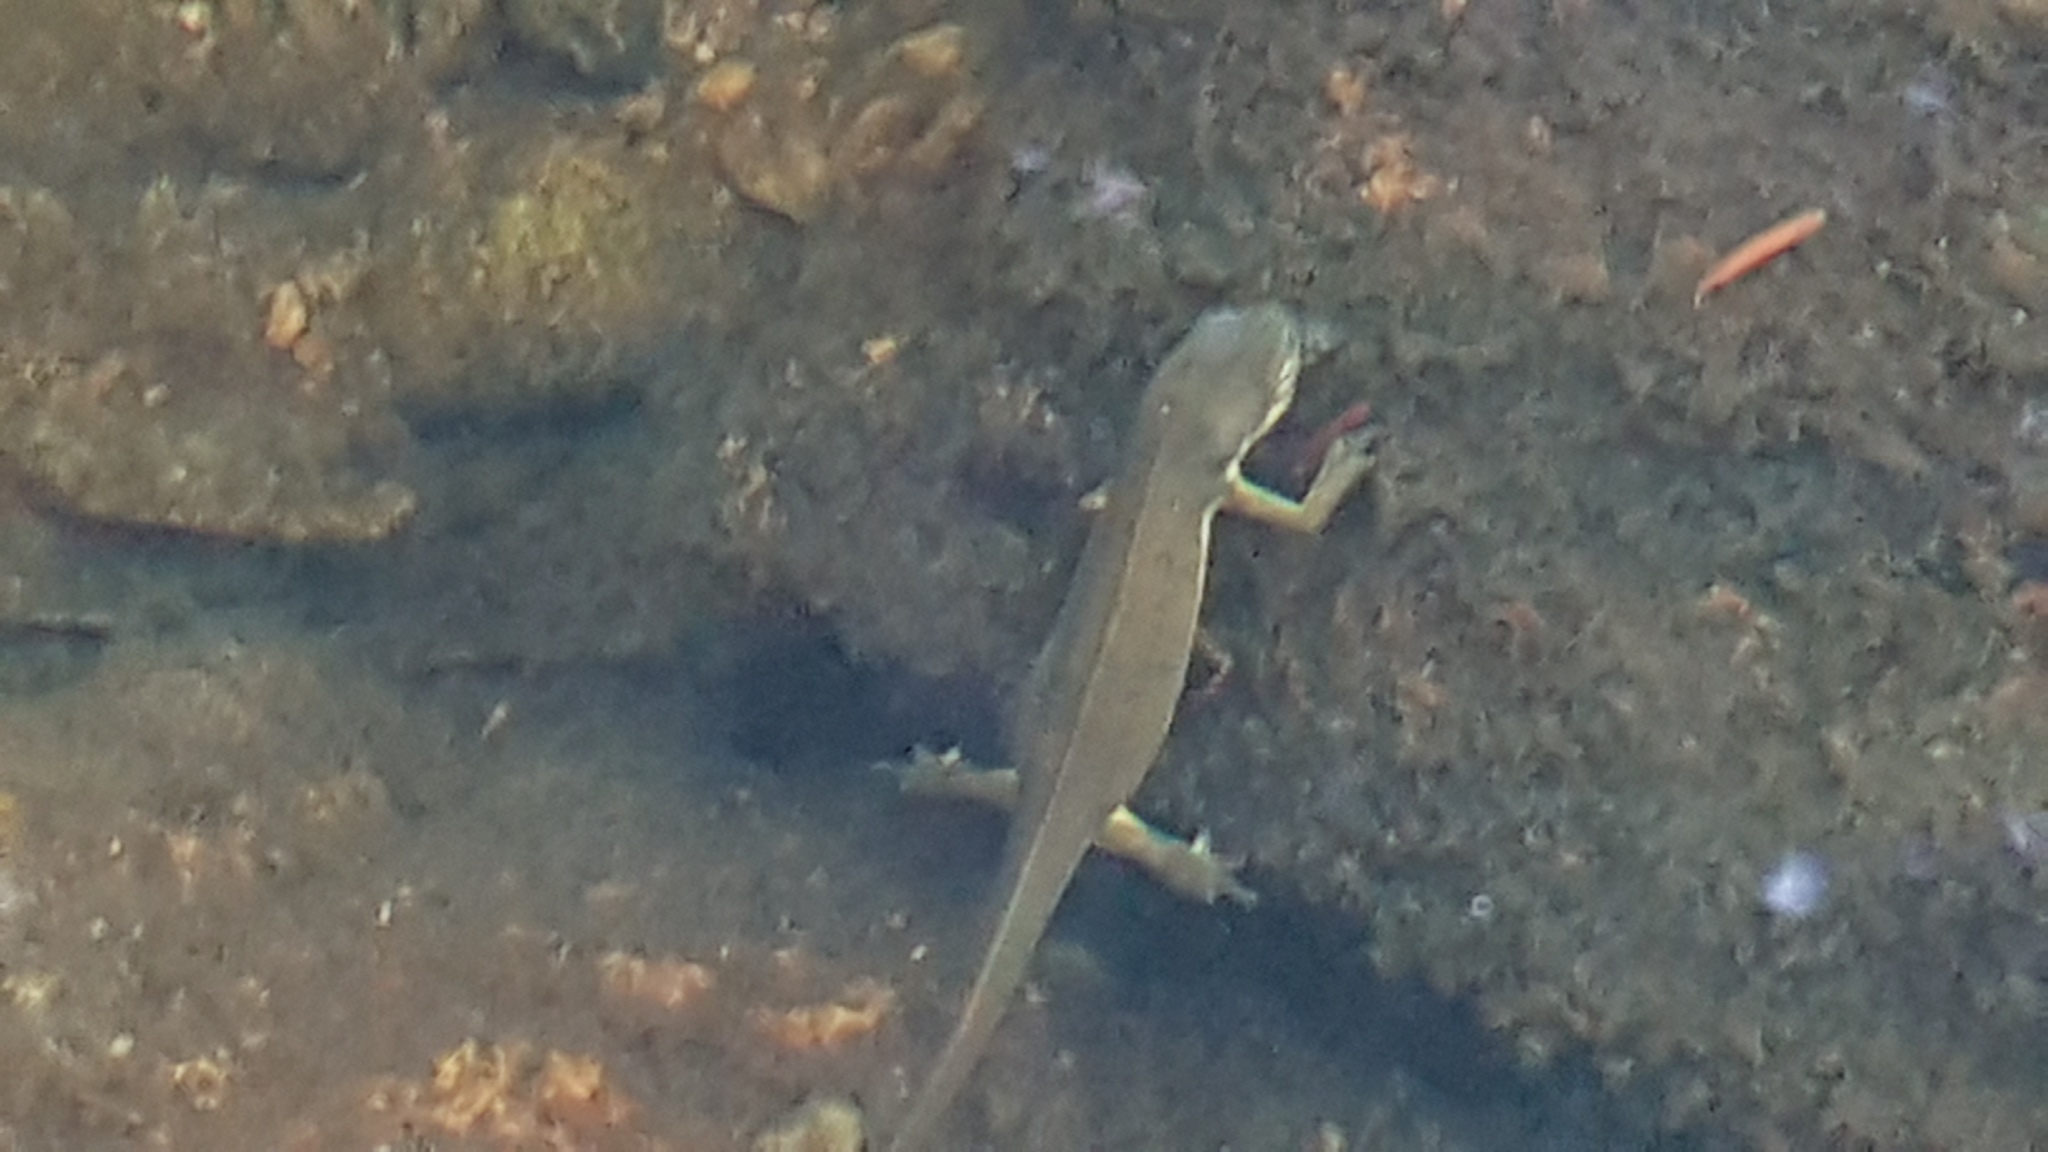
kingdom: Animalia
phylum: Chordata
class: Amphibia
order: Caudata
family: Salamandridae
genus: Notophthalmus
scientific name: Notophthalmus viridescens
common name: Eastern newt
